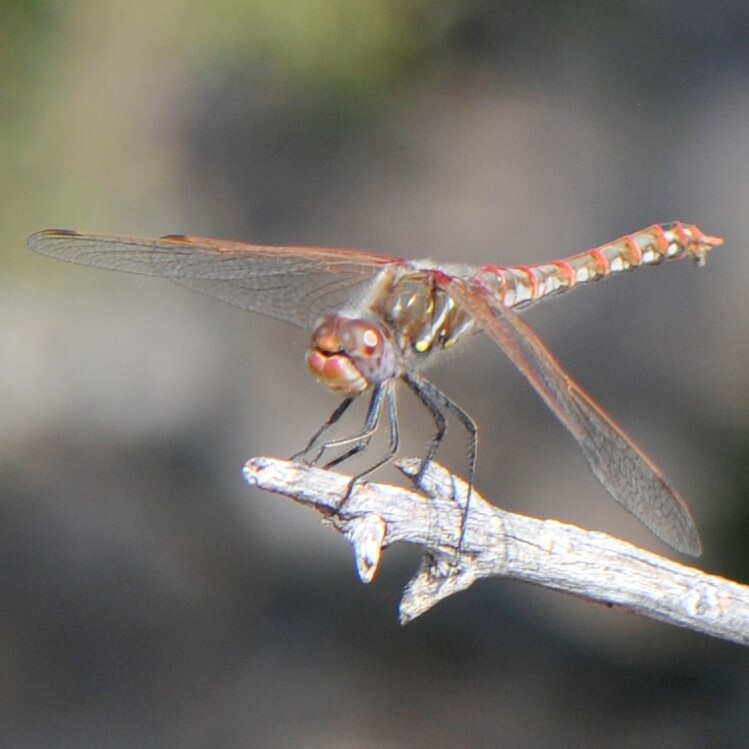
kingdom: Animalia
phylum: Arthropoda
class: Insecta
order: Odonata
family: Libellulidae
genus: Sympetrum
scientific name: Sympetrum corruptum
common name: Variegated meadowhawk
